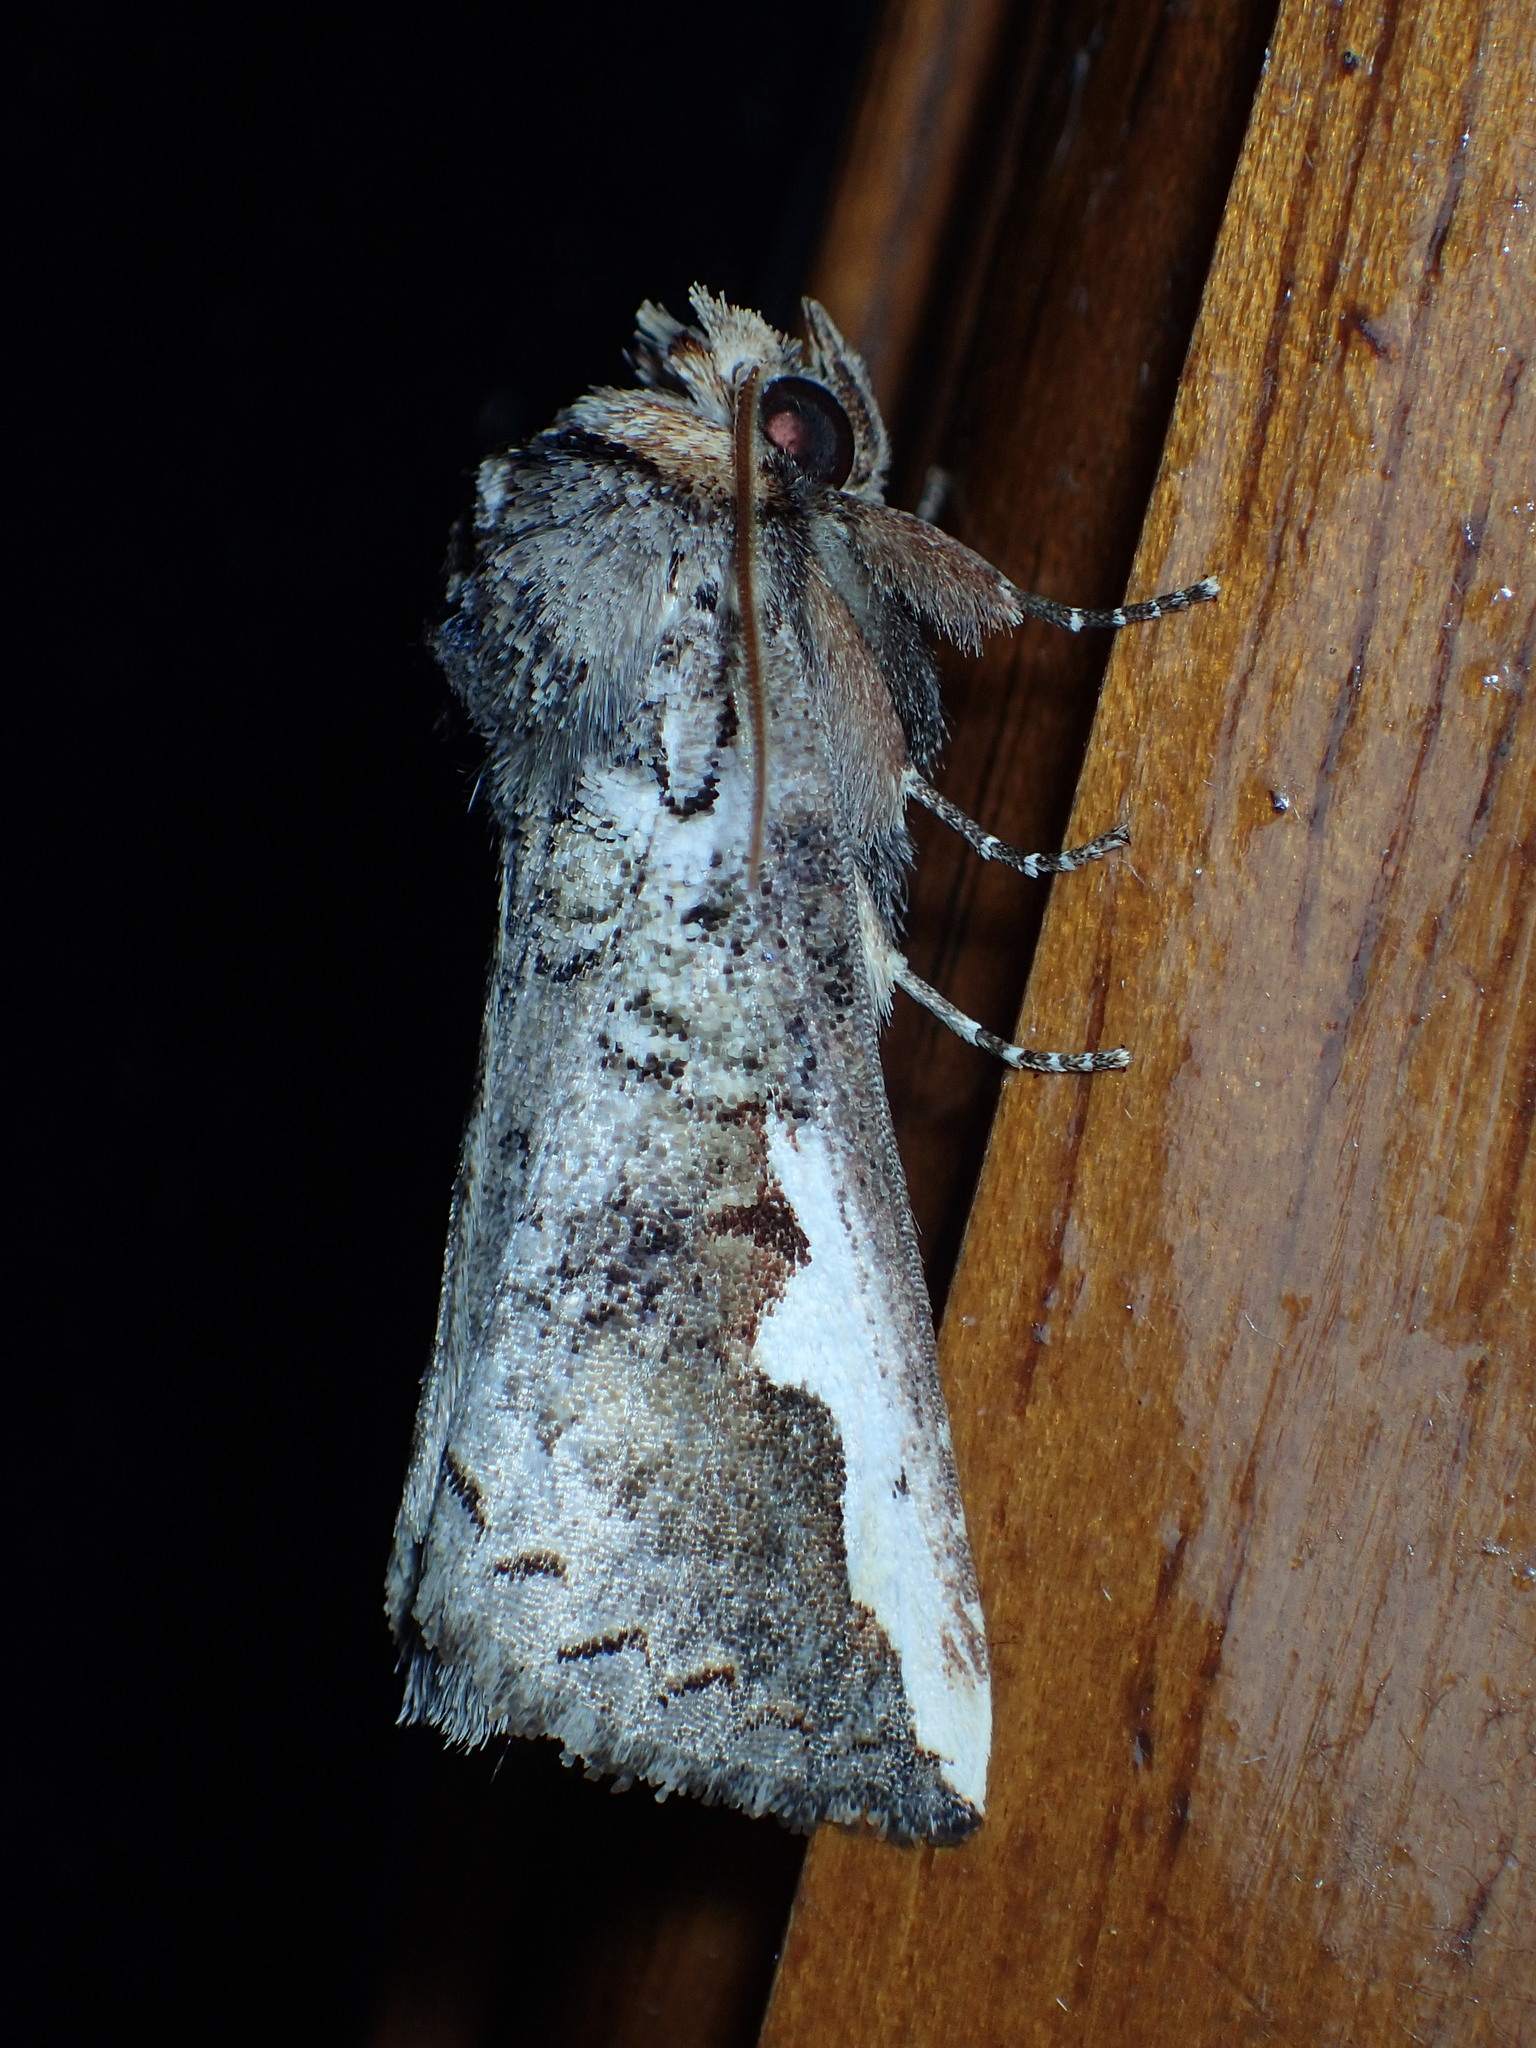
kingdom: Animalia
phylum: Arthropoda
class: Insecta
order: Lepidoptera
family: Notodontidae
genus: Symmerista
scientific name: Symmerista
